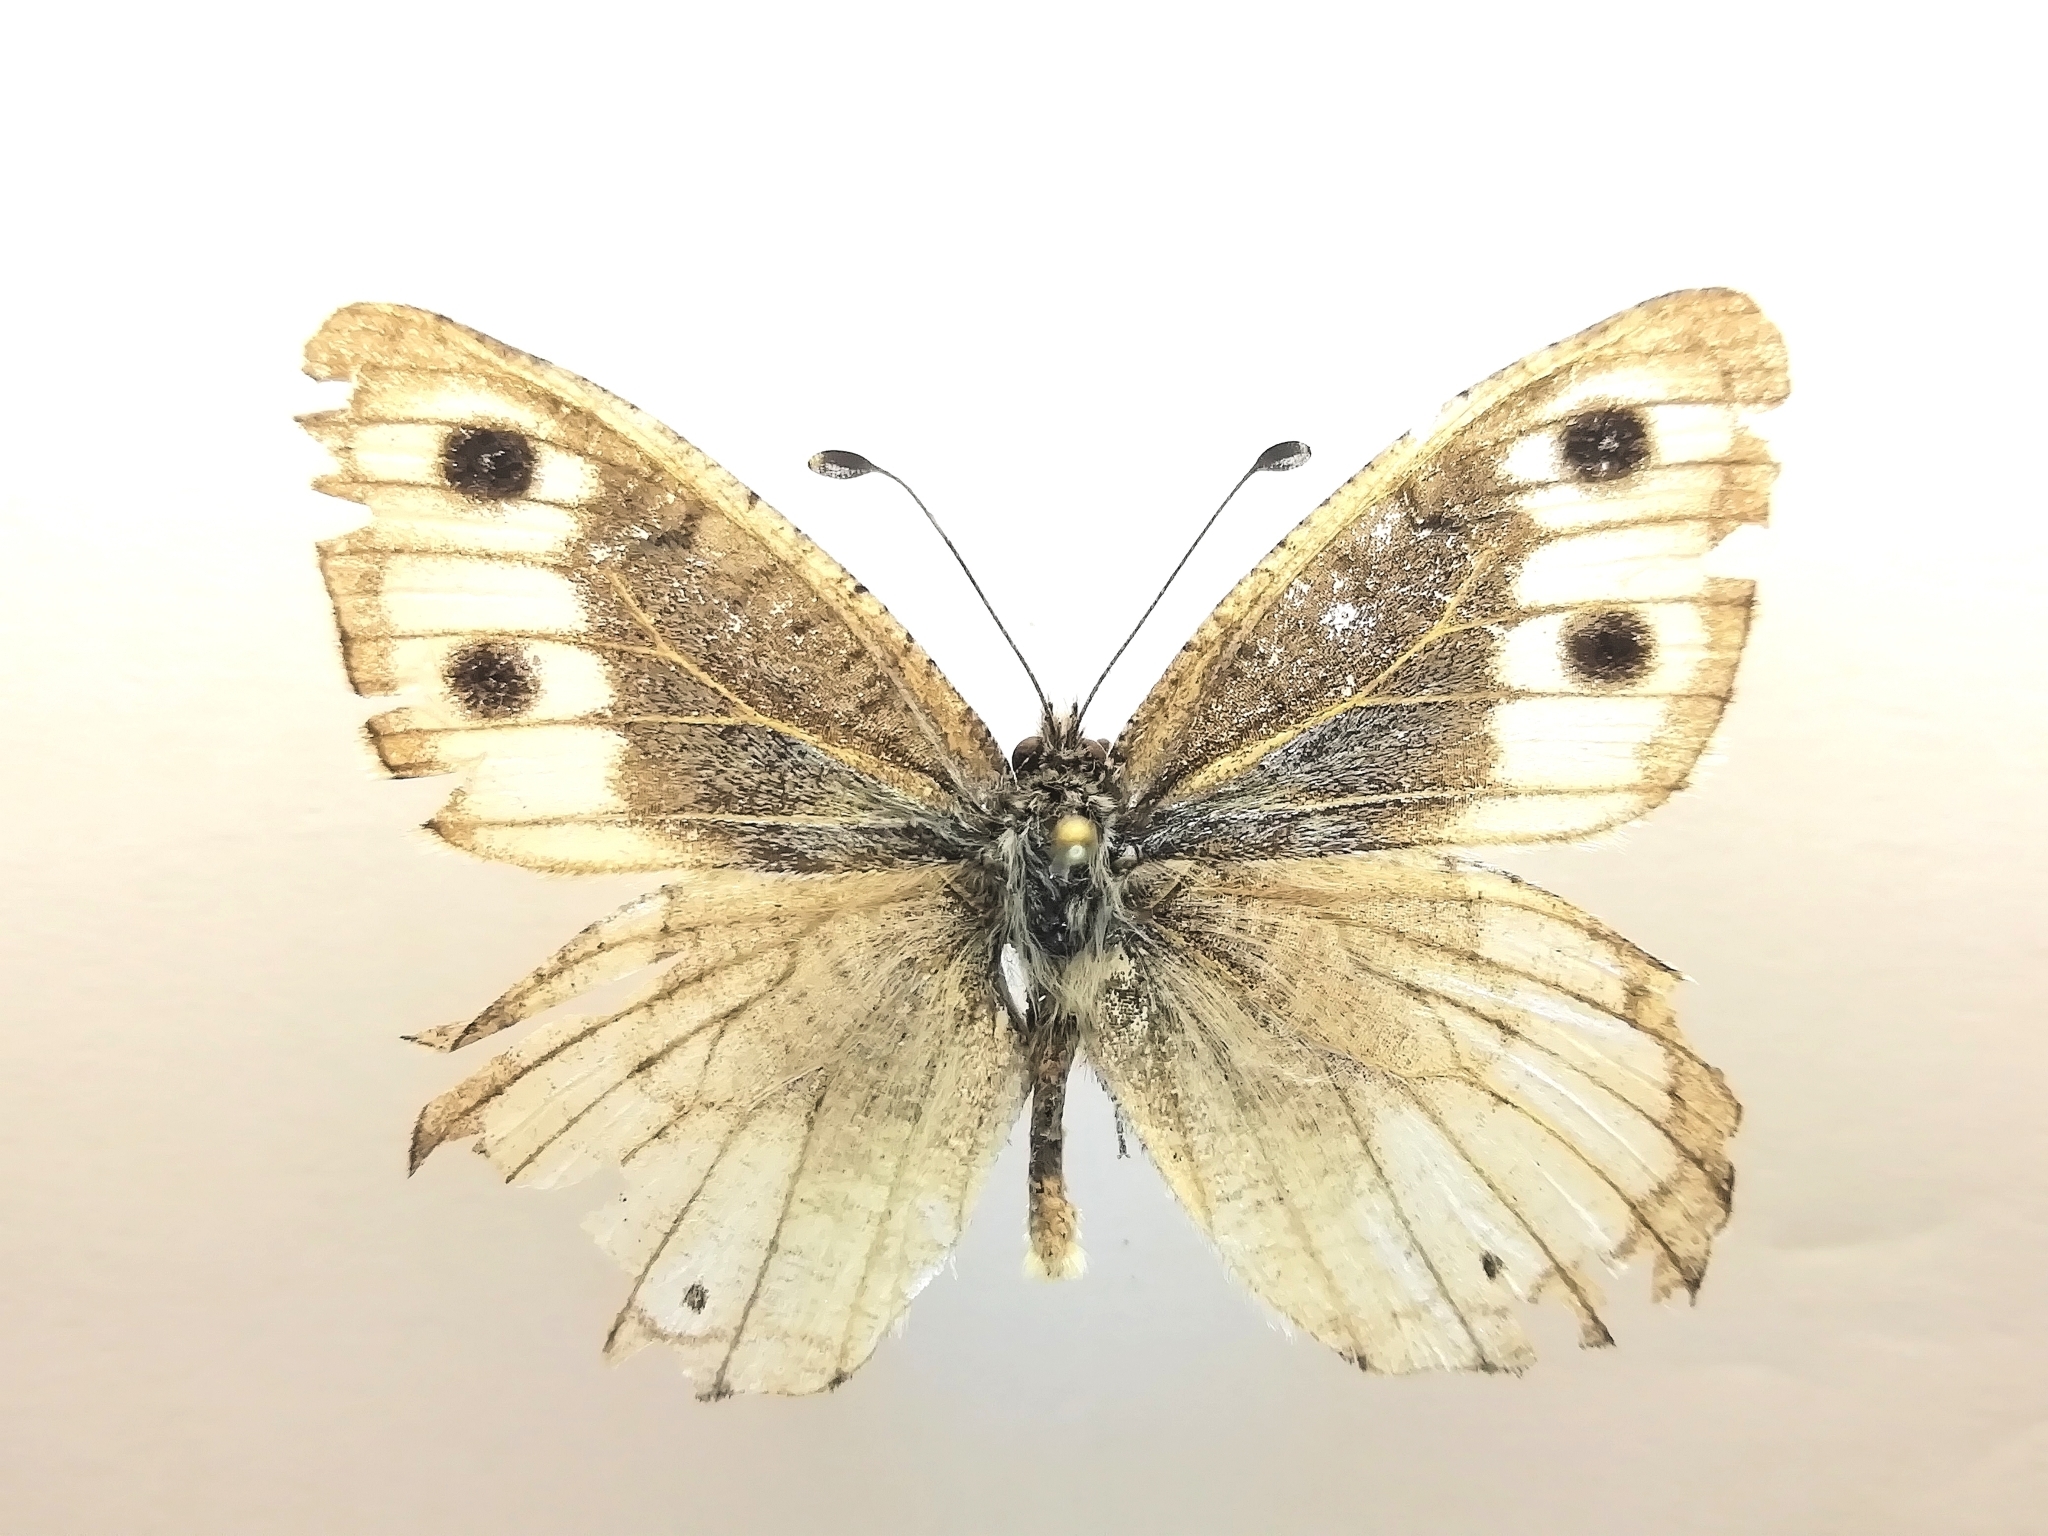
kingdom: Animalia
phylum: Arthropoda
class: Insecta
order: Lepidoptera
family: Nymphalidae
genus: Pseudochazara
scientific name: Pseudochazara hippolyte
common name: Nevada grayling
